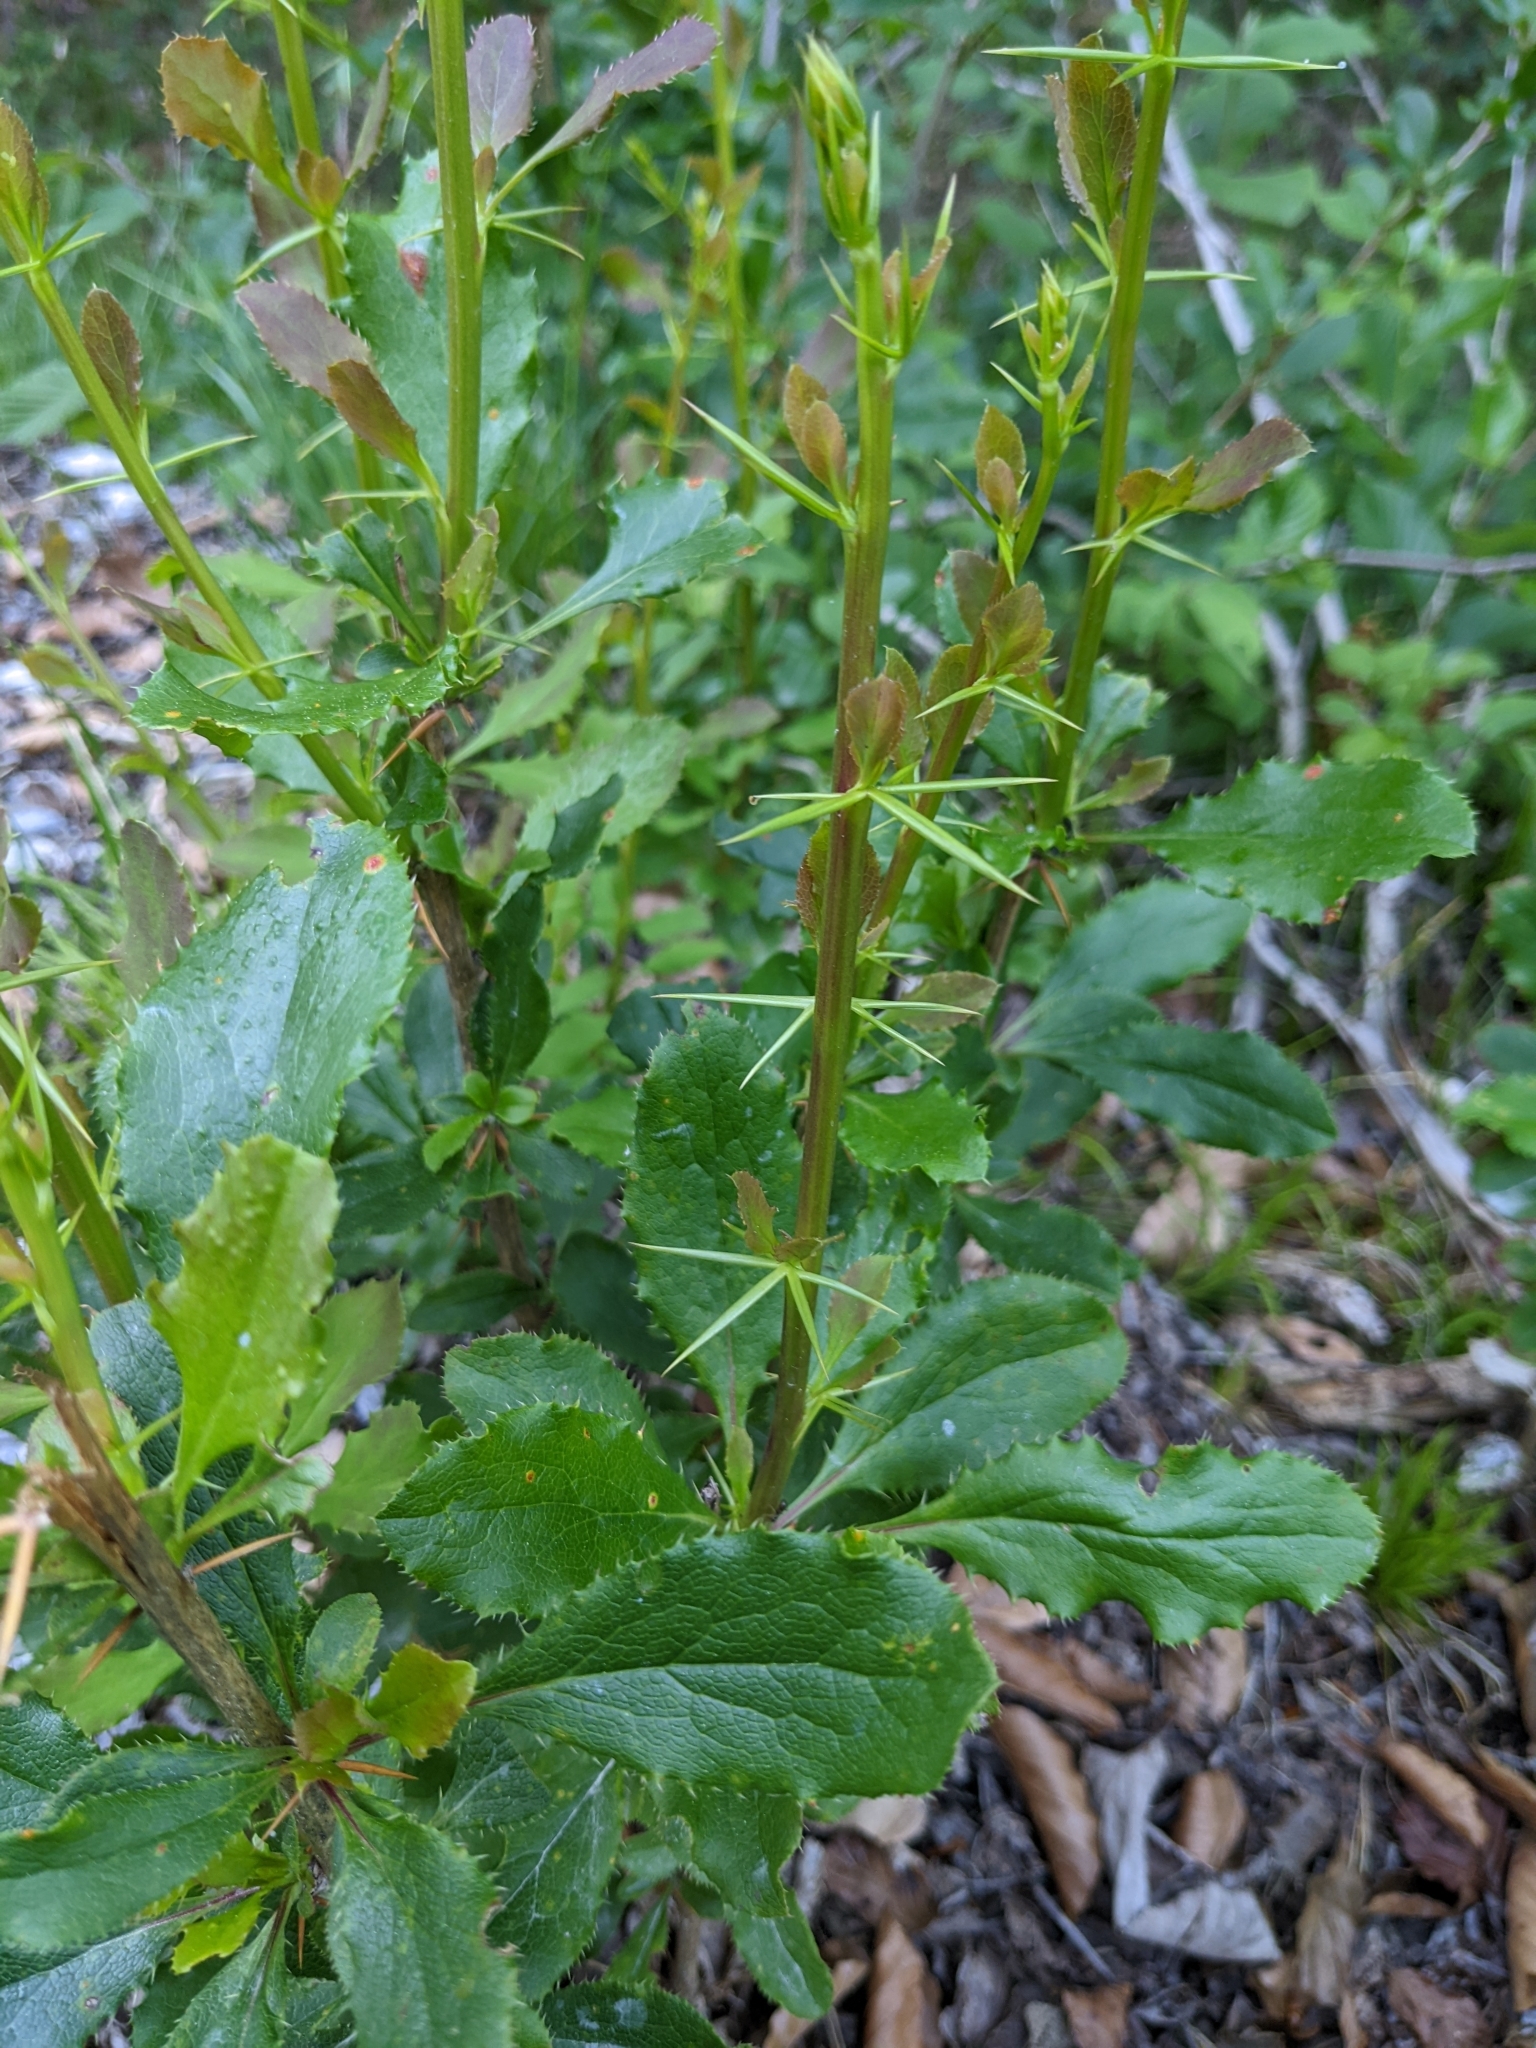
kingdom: Plantae
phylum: Tracheophyta
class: Magnoliopsida
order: Ranunculales
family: Berberidaceae
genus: Berberis
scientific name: Berberis vulgaris
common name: Barberry
